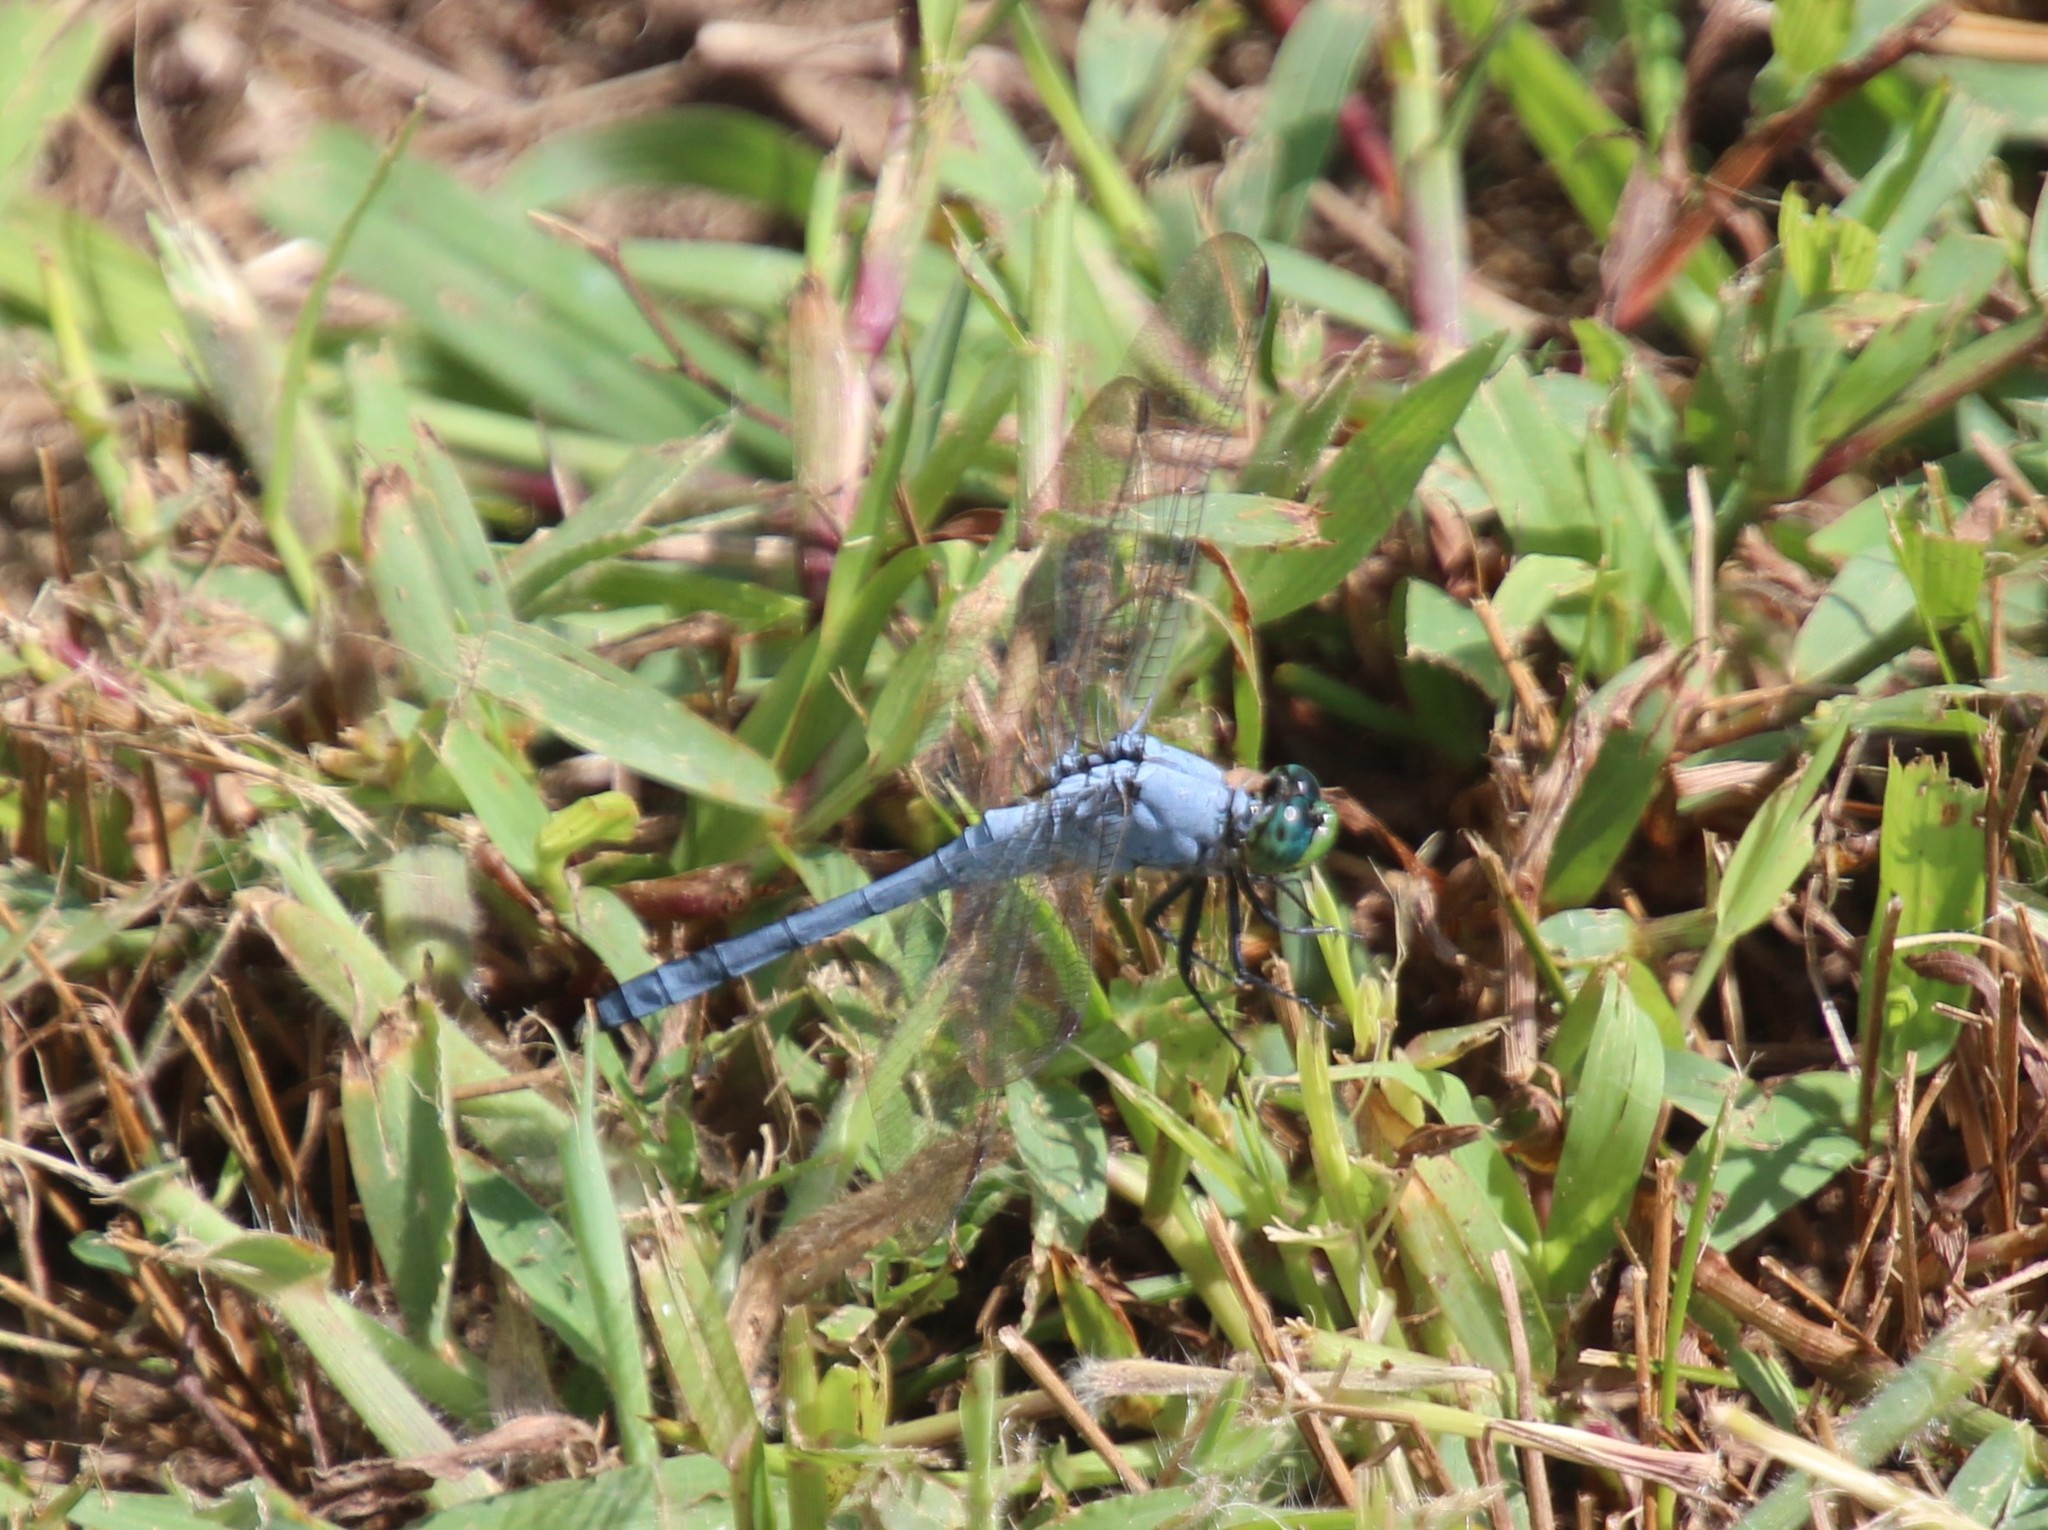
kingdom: Animalia
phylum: Arthropoda
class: Insecta
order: Odonata
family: Libellulidae
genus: Erythemis
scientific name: Erythemis simplicicollis
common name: Eastern pondhawk
